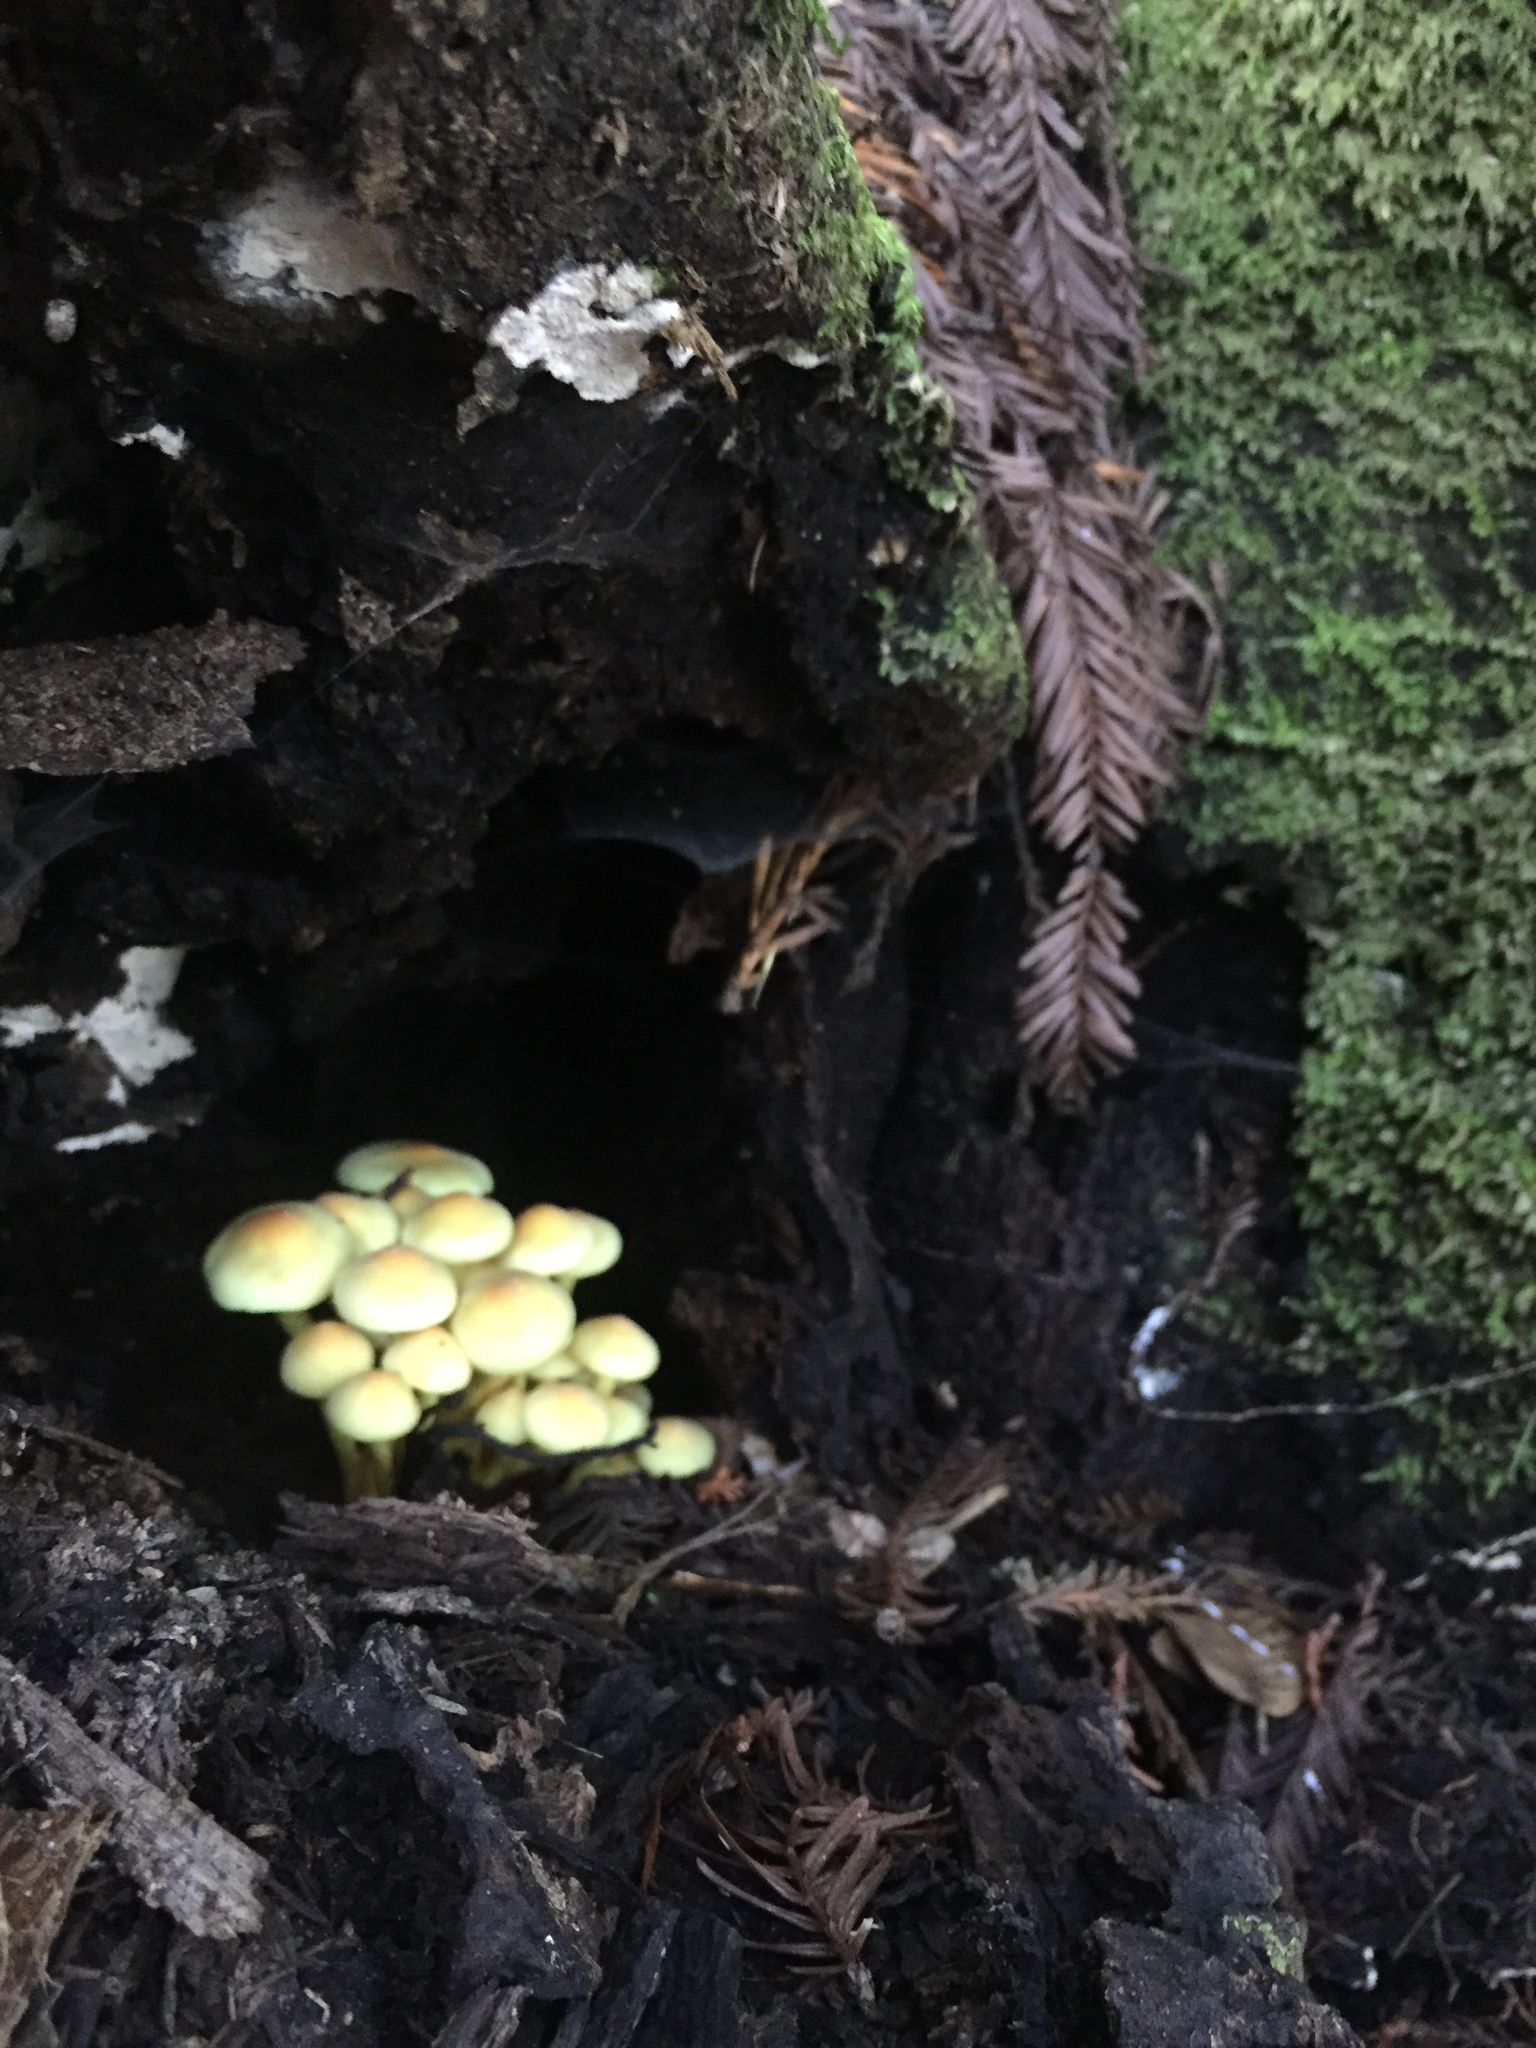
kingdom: Fungi
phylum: Basidiomycota
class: Agaricomycetes
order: Agaricales
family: Strophariaceae
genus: Hypholoma
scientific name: Hypholoma fasciculare
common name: Sulphur tuft
